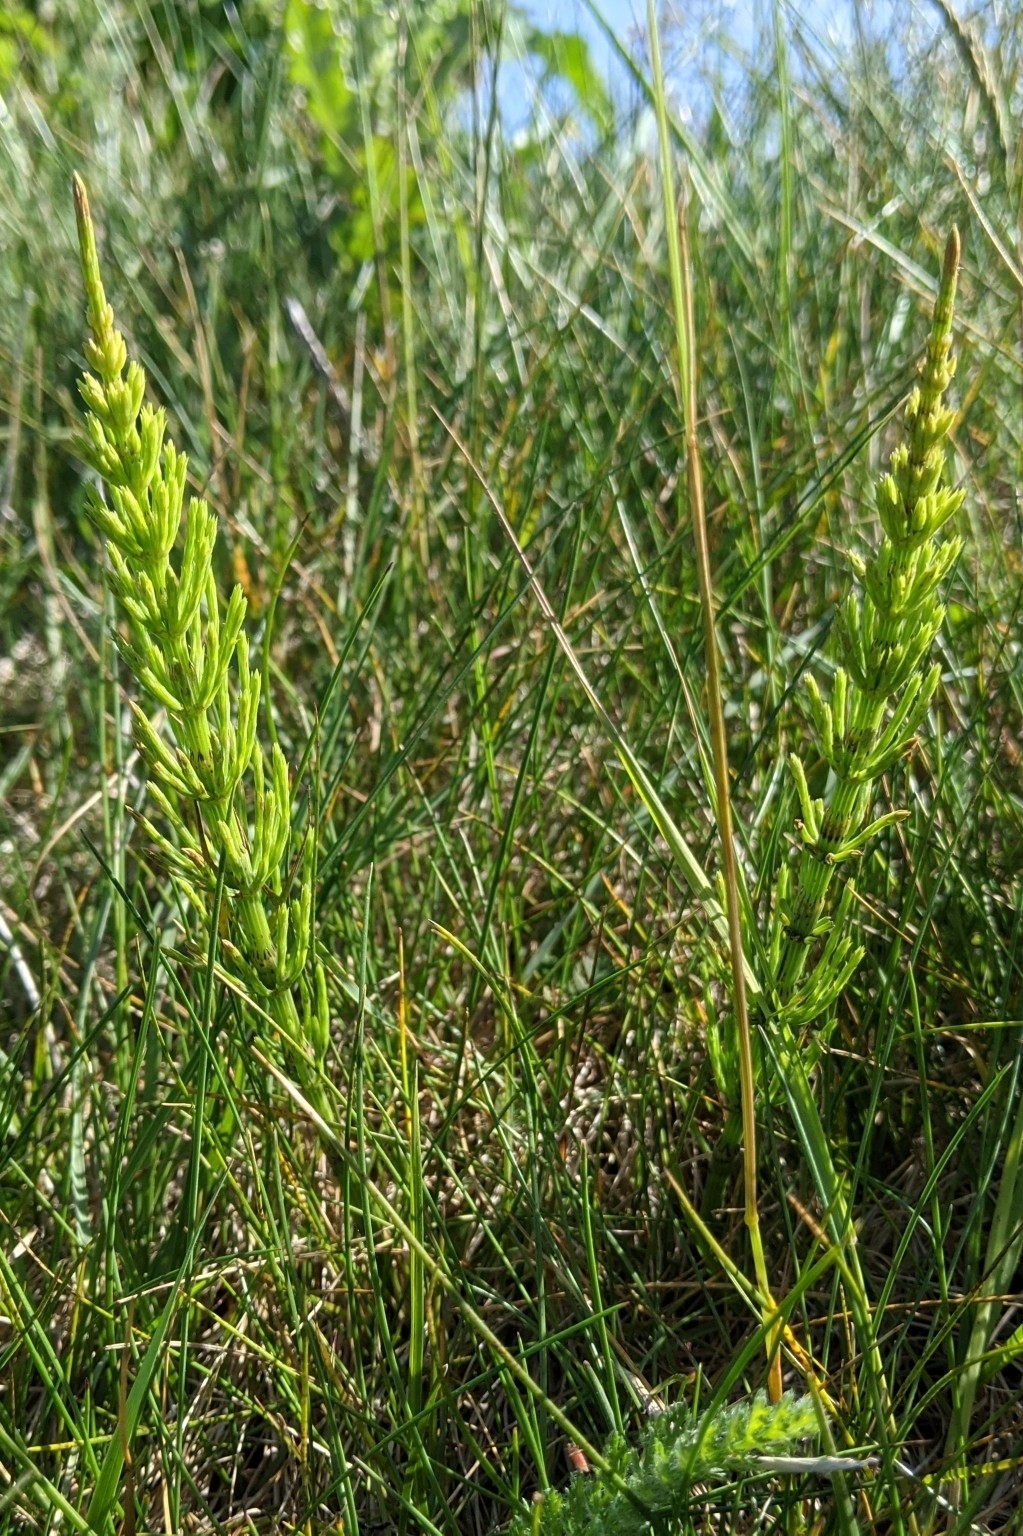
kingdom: Plantae
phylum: Tracheophyta
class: Polypodiopsida
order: Equisetales
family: Equisetaceae
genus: Equisetum
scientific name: Equisetum arvense
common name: Field horsetail
